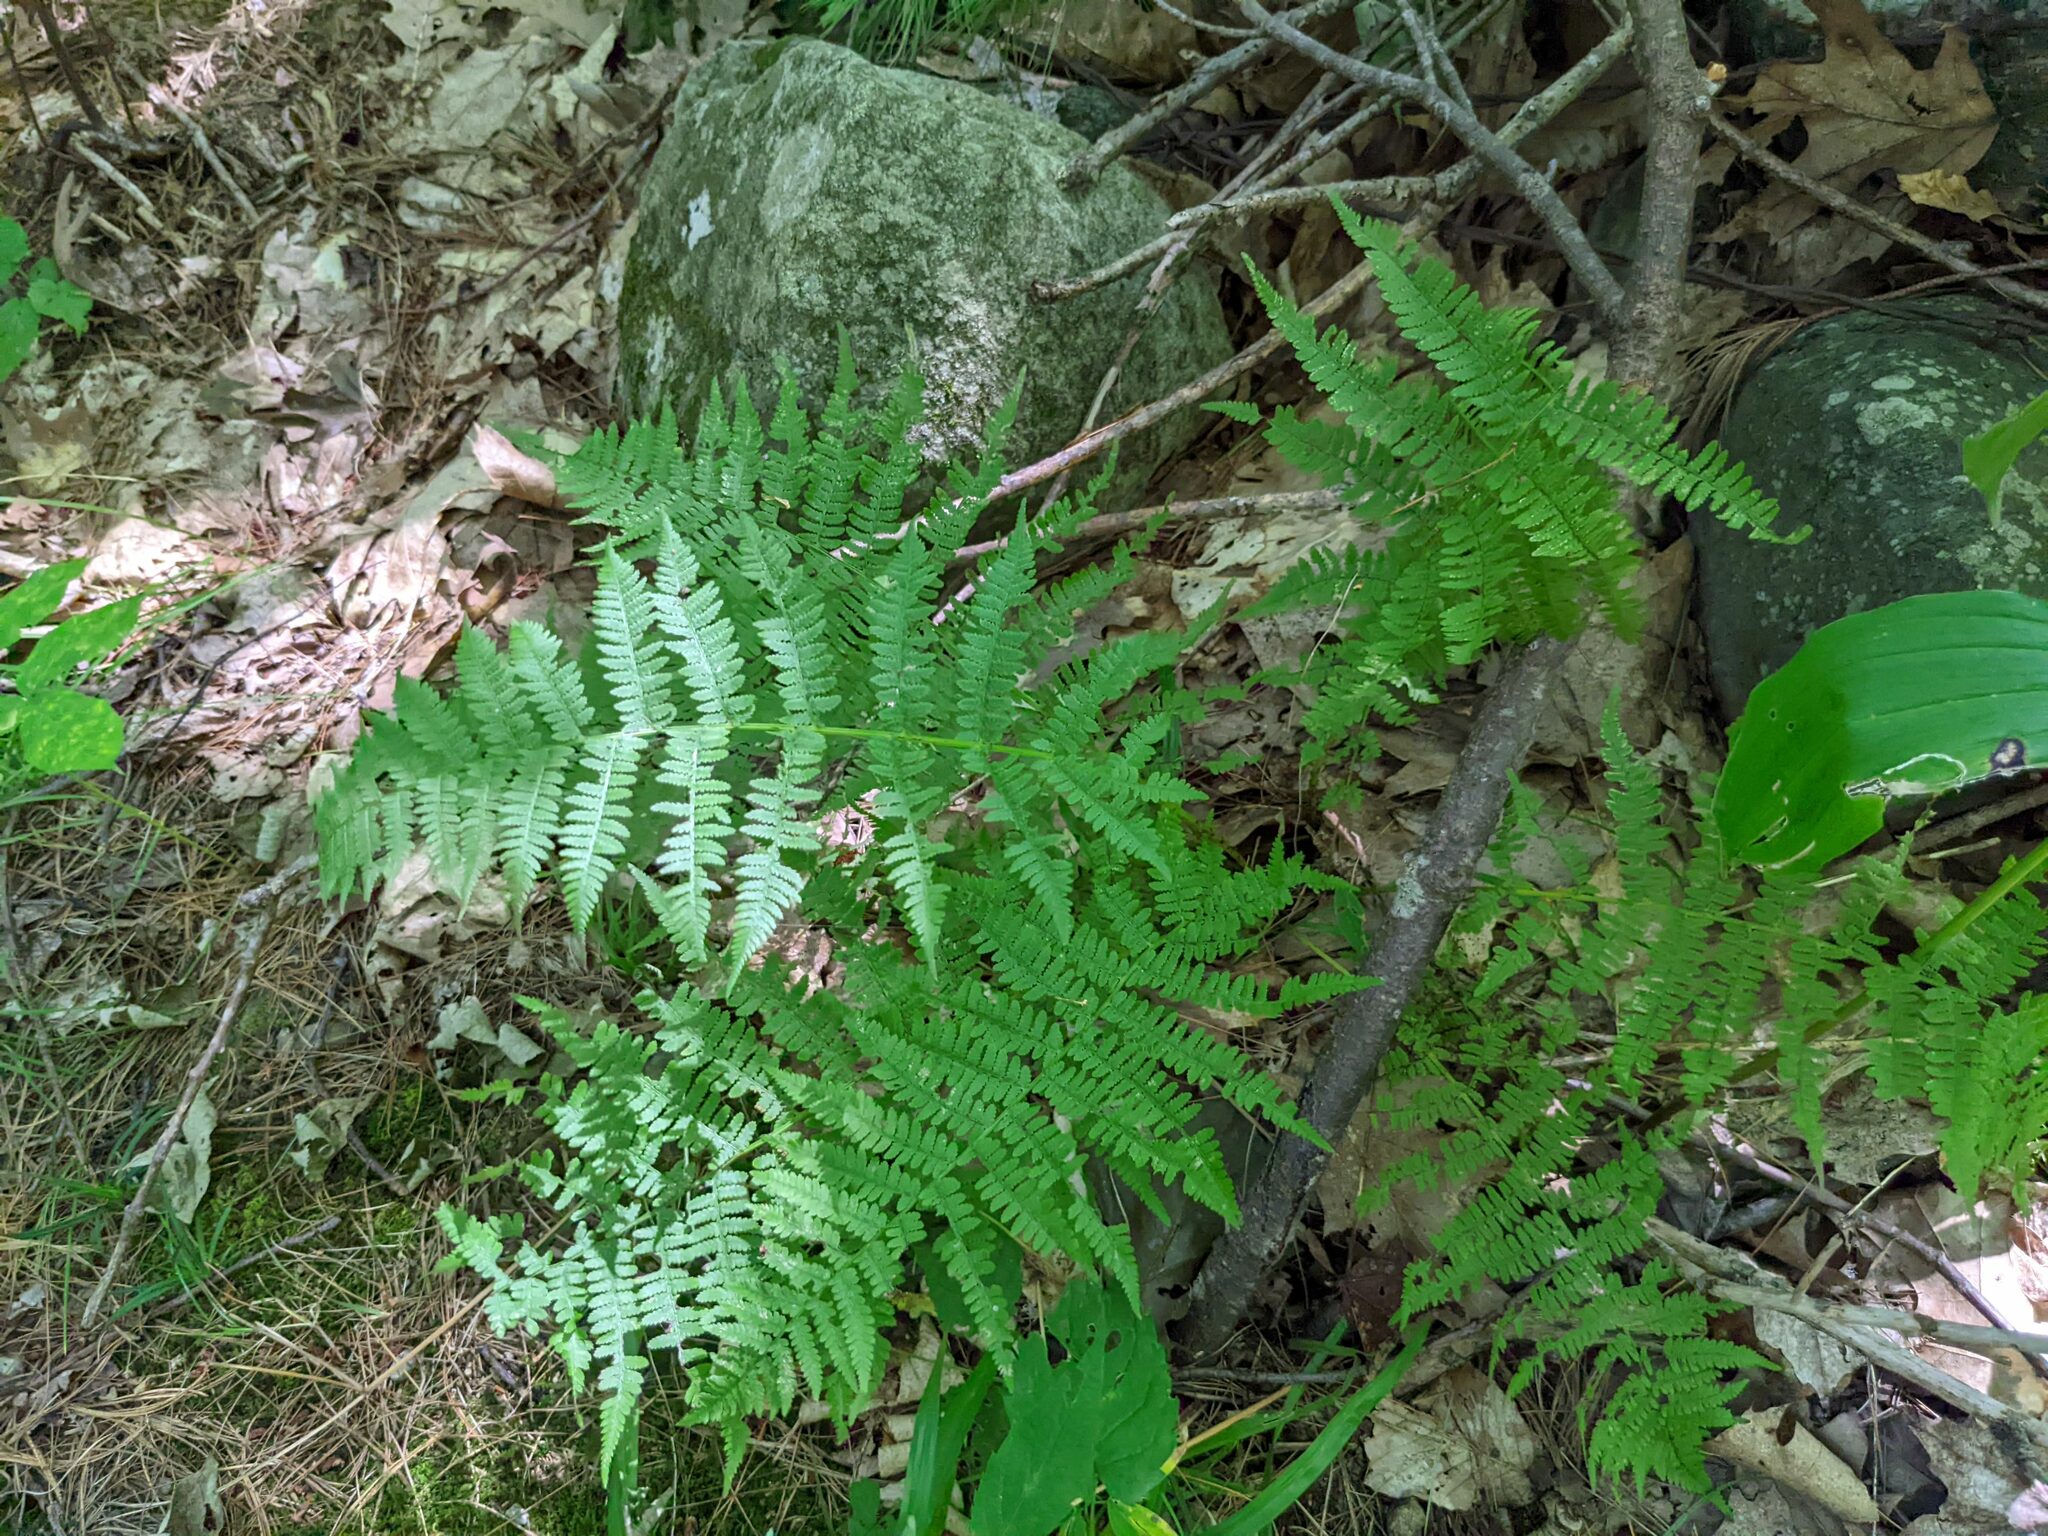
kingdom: Plantae
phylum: Tracheophyta
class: Polypodiopsida
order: Polypodiales
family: Athyriaceae
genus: Athyrium
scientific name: Athyrium angustum
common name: Northern lady fern
